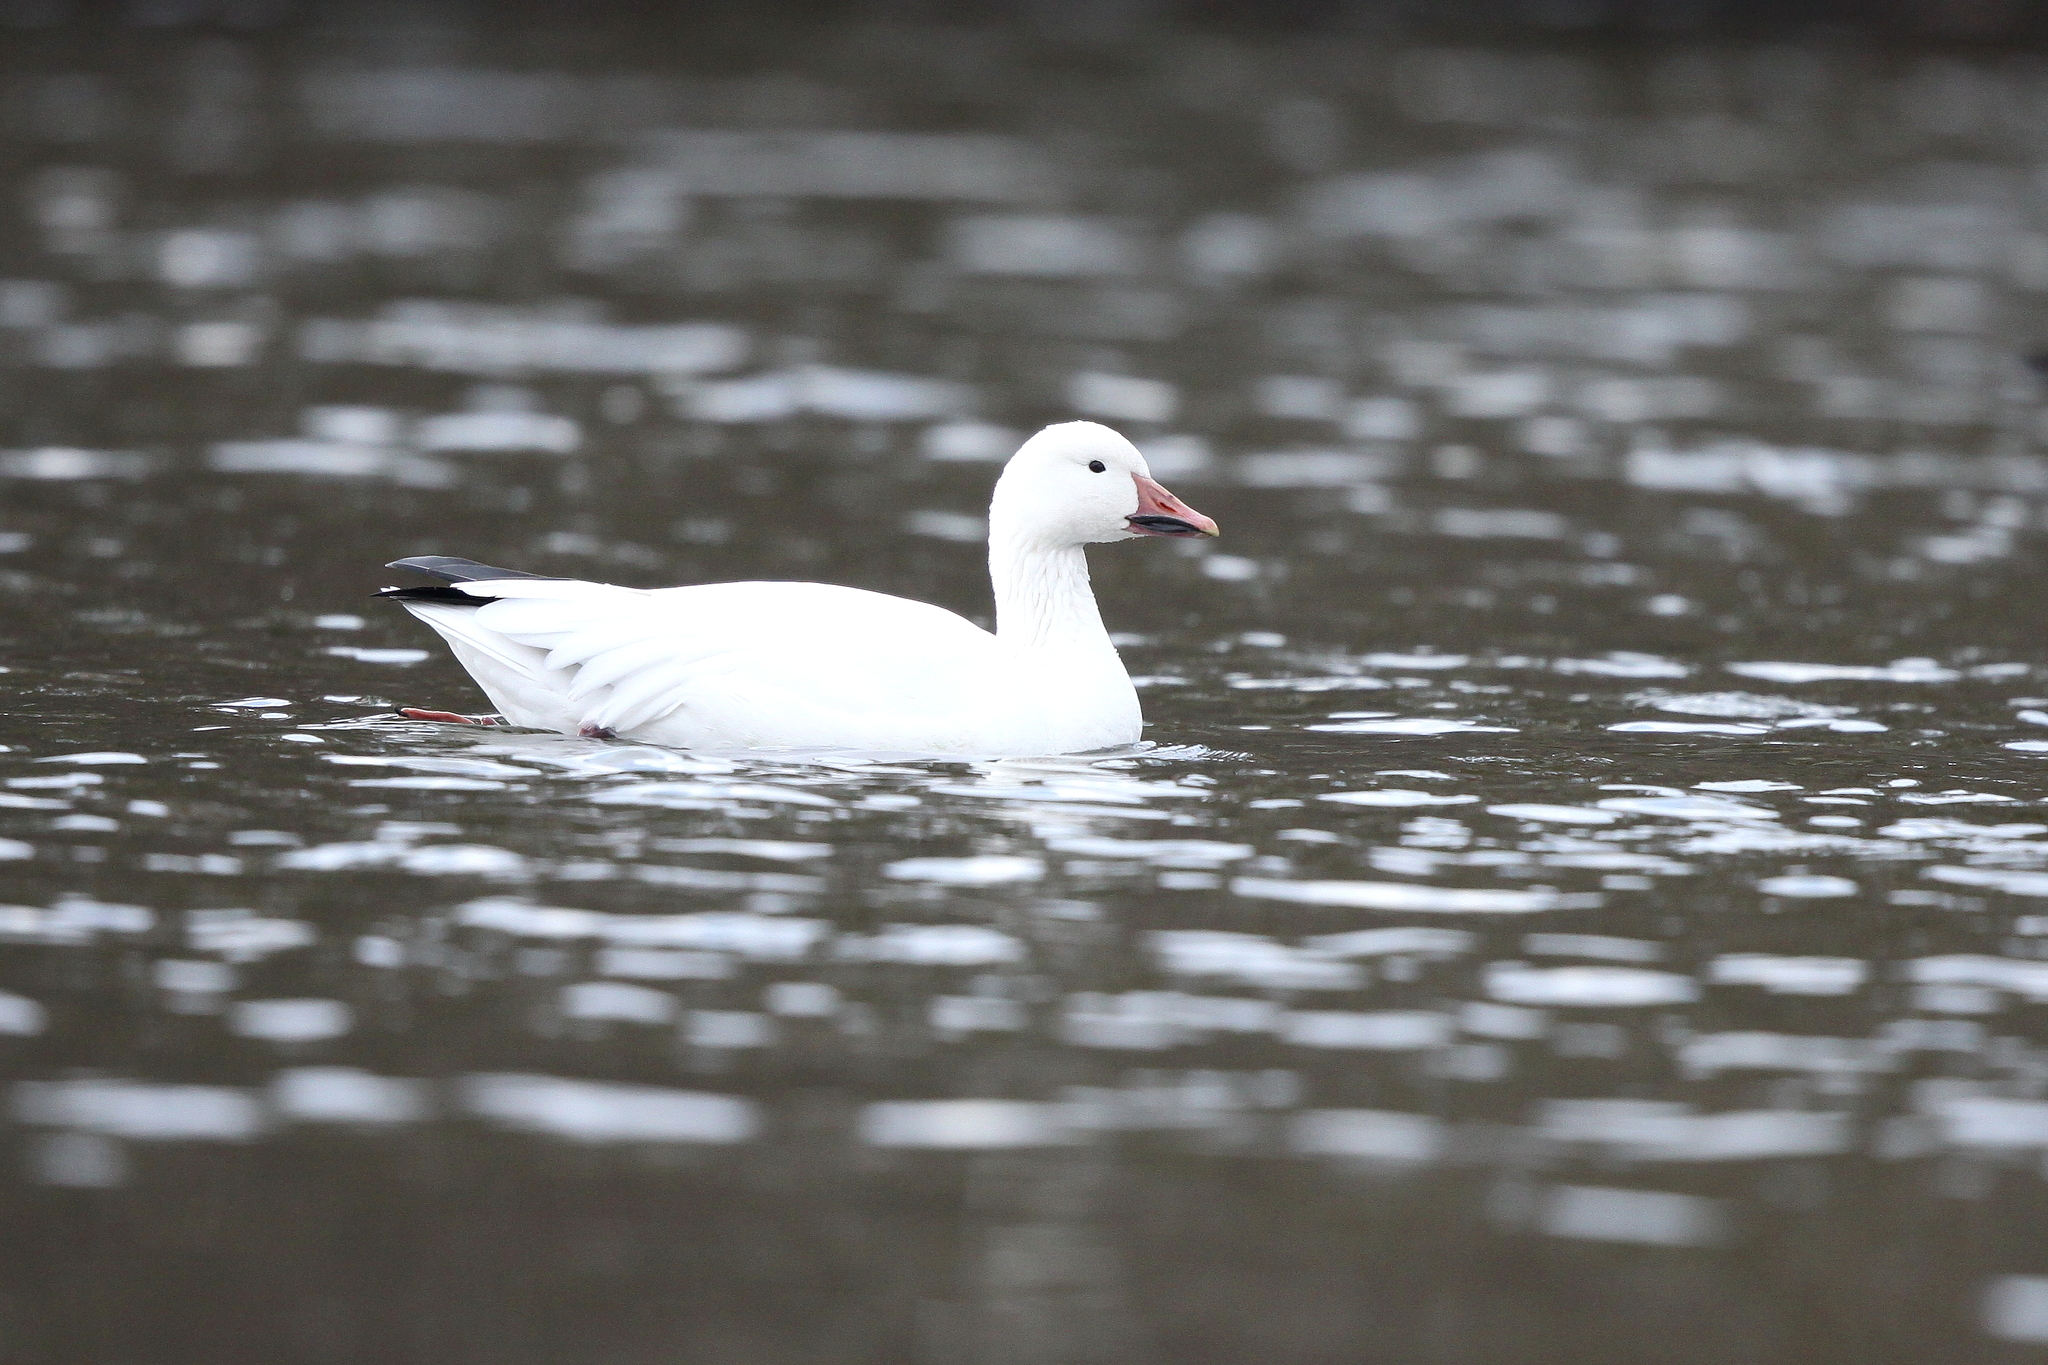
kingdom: Animalia
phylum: Chordata
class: Aves
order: Anseriformes
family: Anatidae
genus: Anser
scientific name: Anser caerulescens
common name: Snow goose
